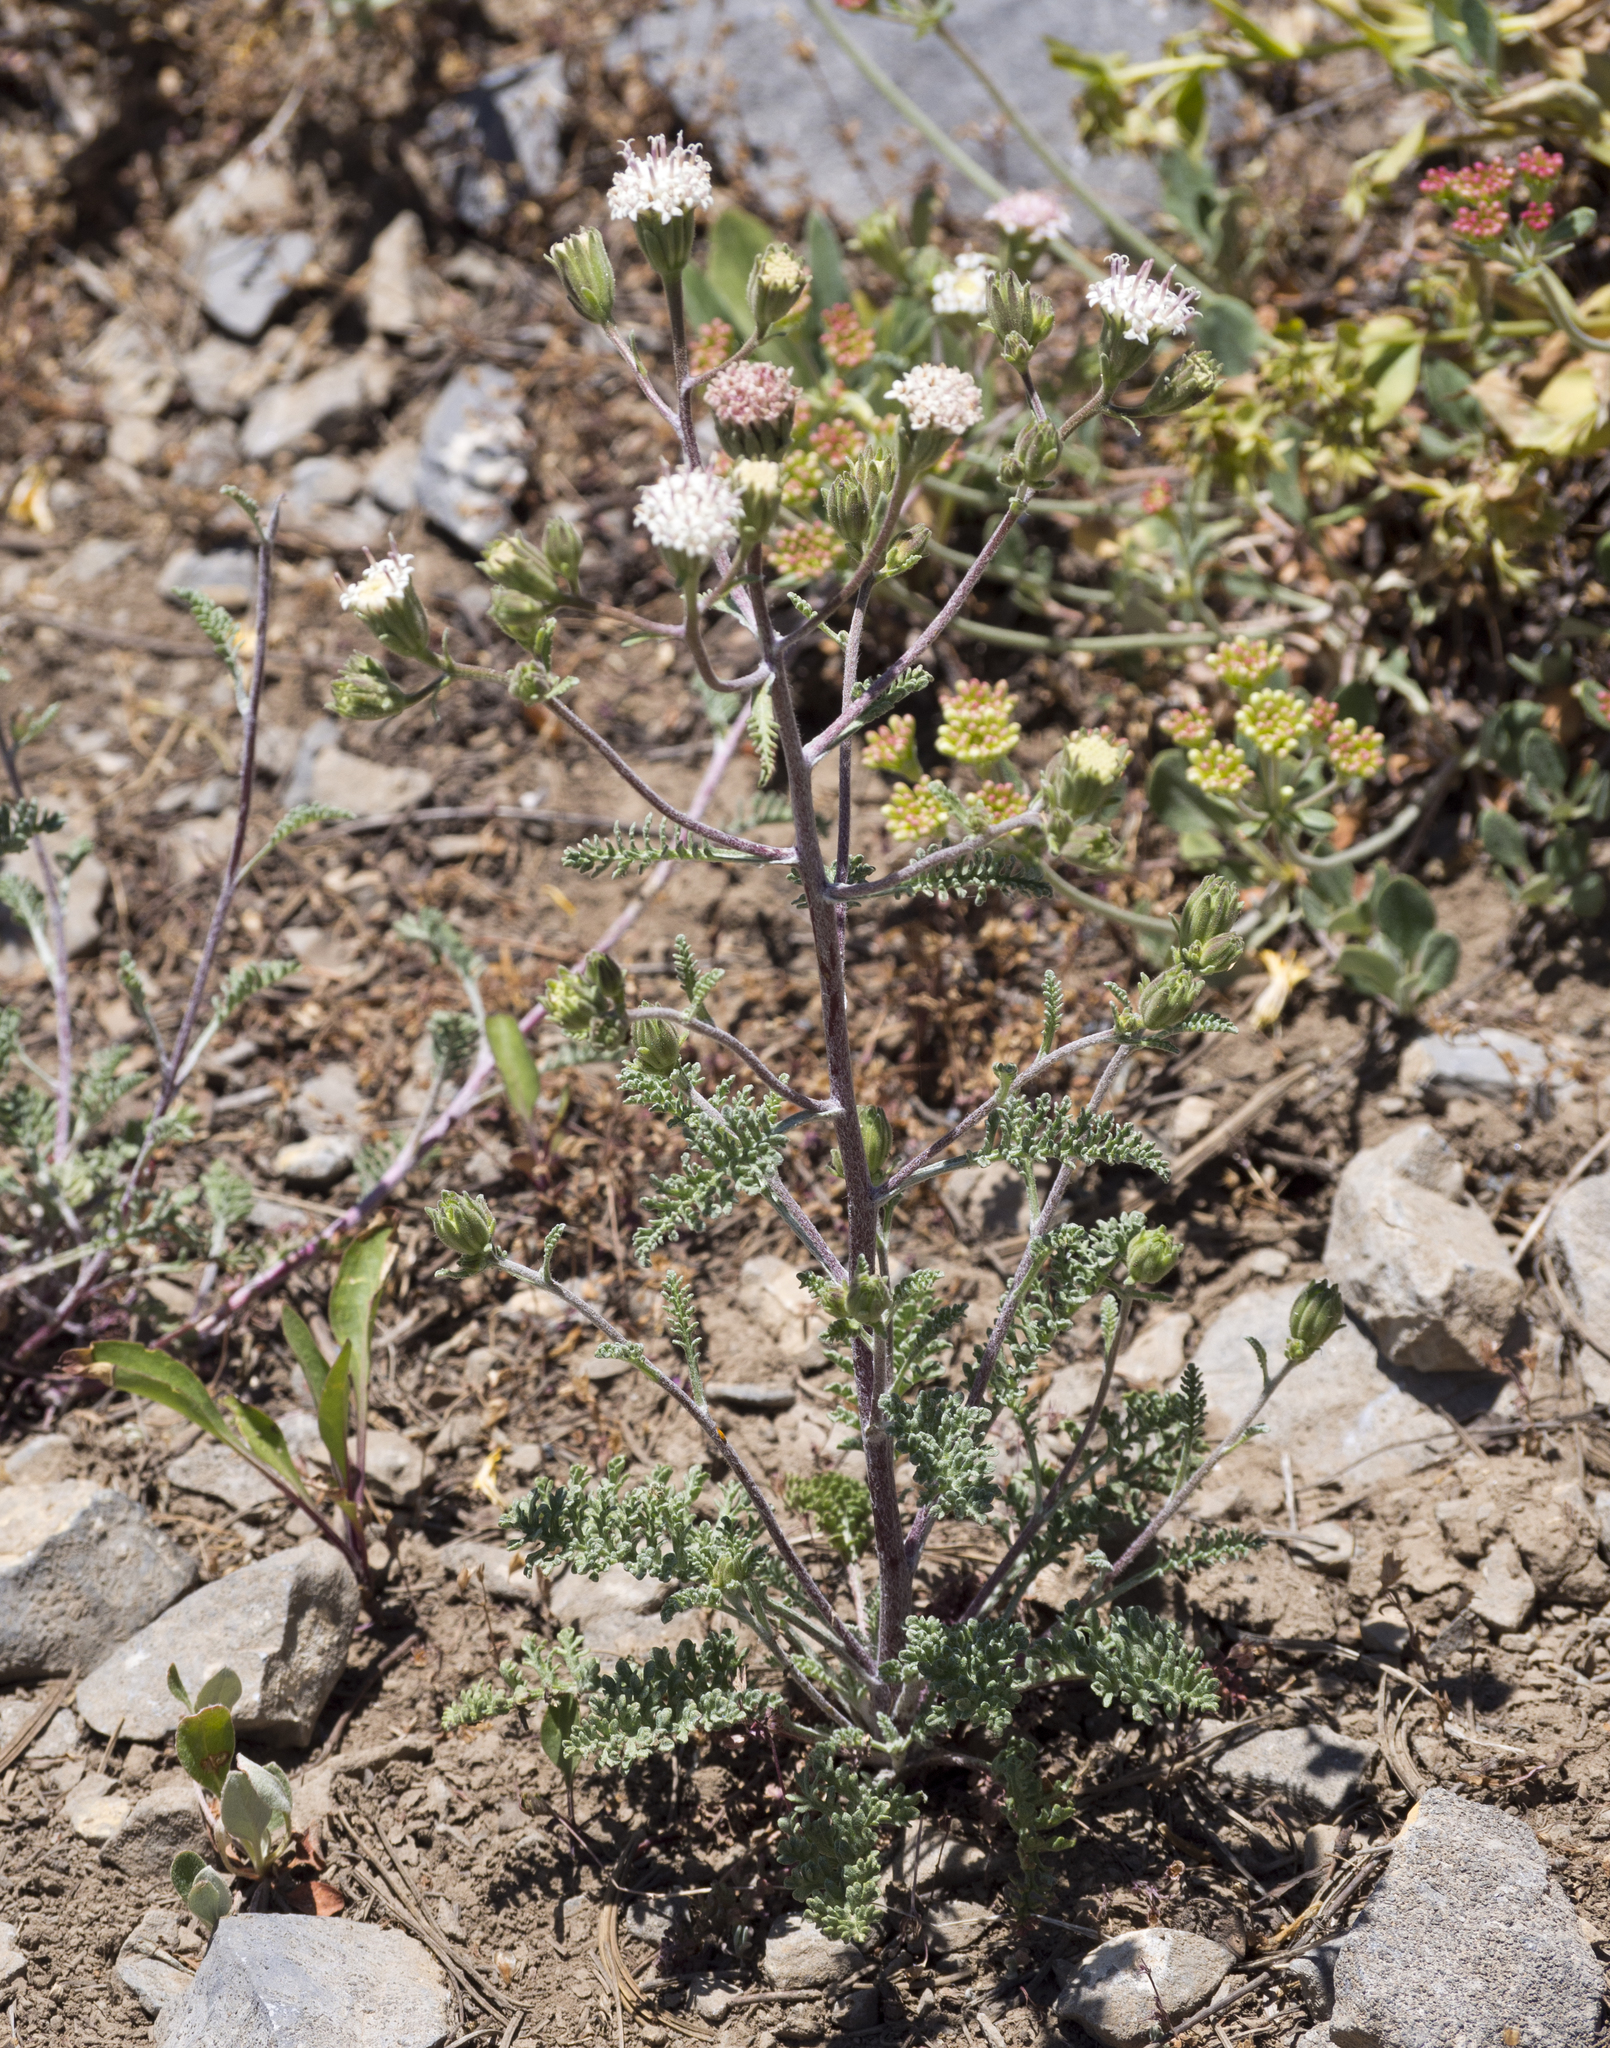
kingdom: Plantae
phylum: Tracheophyta
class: Magnoliopsida
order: Asterales
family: Asteraceae
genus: Chaenactis
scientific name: Chaenactis douglasii
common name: Hoary pincushion
